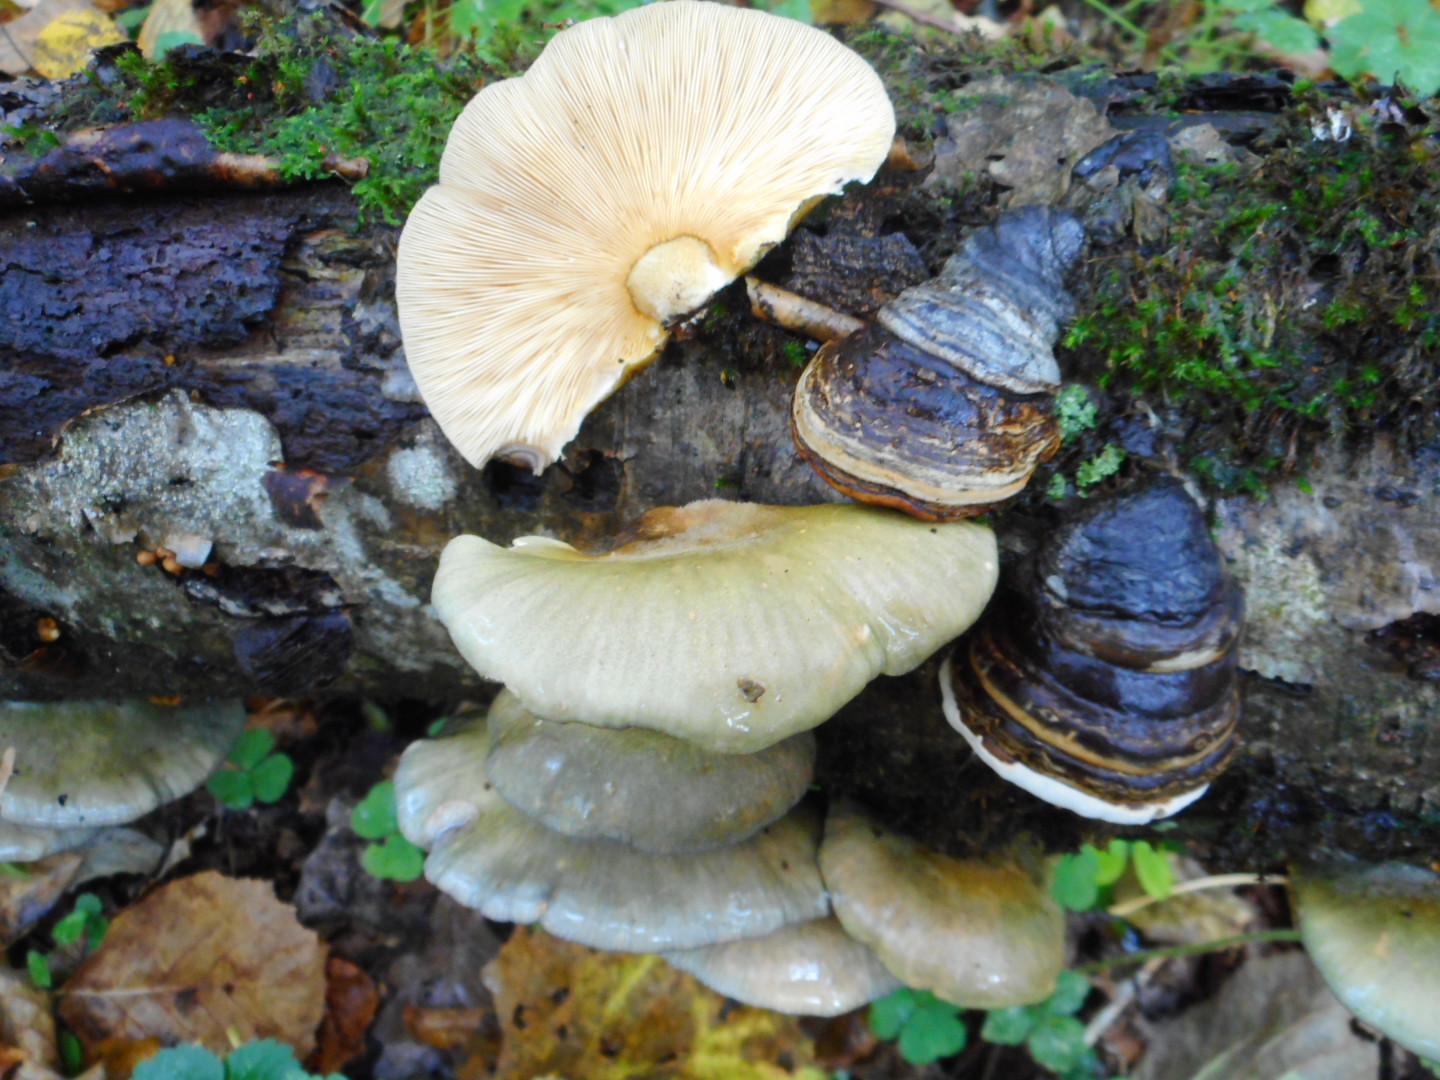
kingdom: Fungi
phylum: Basidiomycota
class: Agaricomycetes
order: Agaricales
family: Sarcomyxaceae
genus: Sarcomyxa
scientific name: Sarcomyxa serotina
